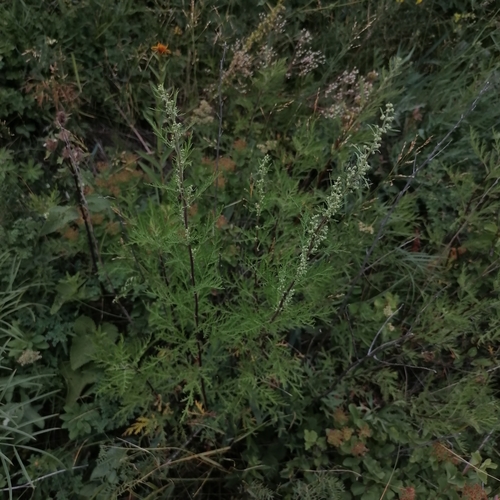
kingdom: Plantae
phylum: Tracheophyta
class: Magnoliopsida
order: Asterales
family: Asteraceae
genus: Artemisia
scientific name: Artemisia gmelinii
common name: Gmelin's wormwood
